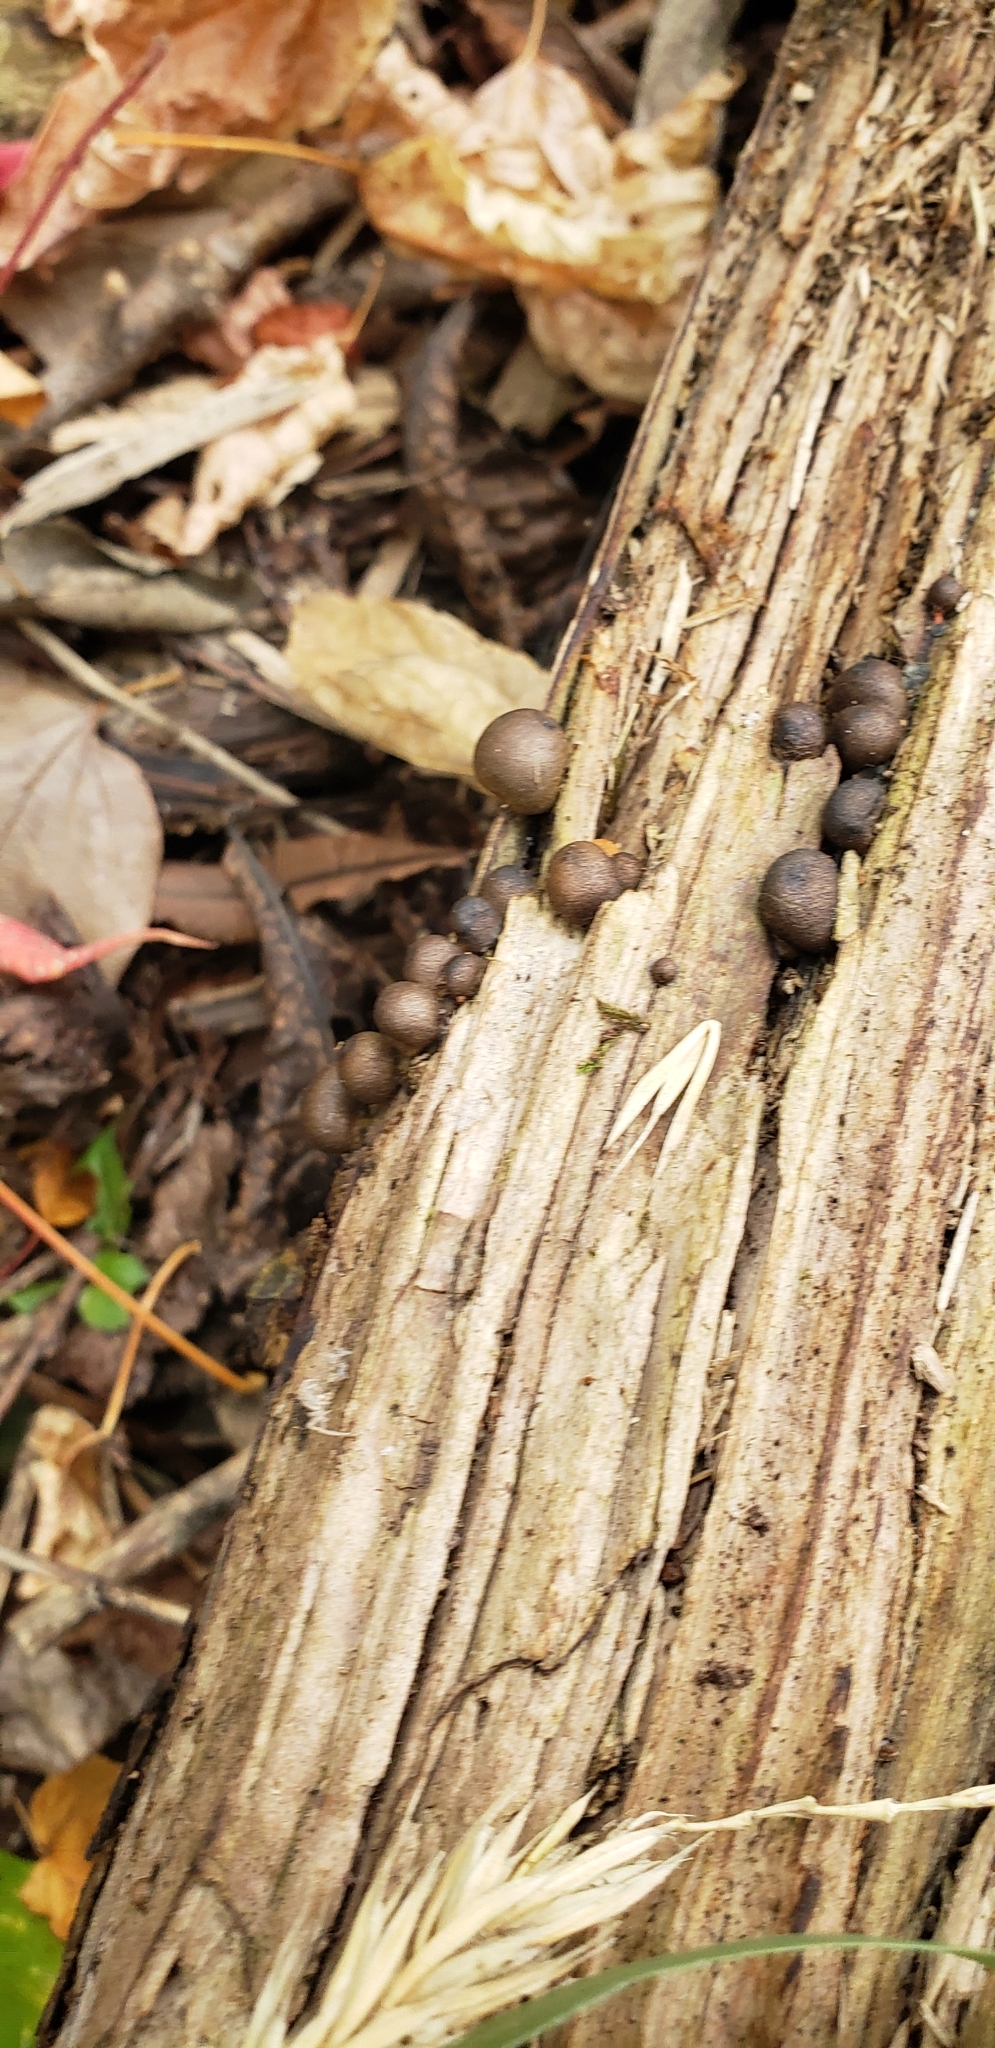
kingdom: Protozoa
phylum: Mycetozoa
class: Myxomycetes
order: Cribrariales
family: Tubiferaceae
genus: Lycogala
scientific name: Lycogala epidendrum
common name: Wolf's milk
